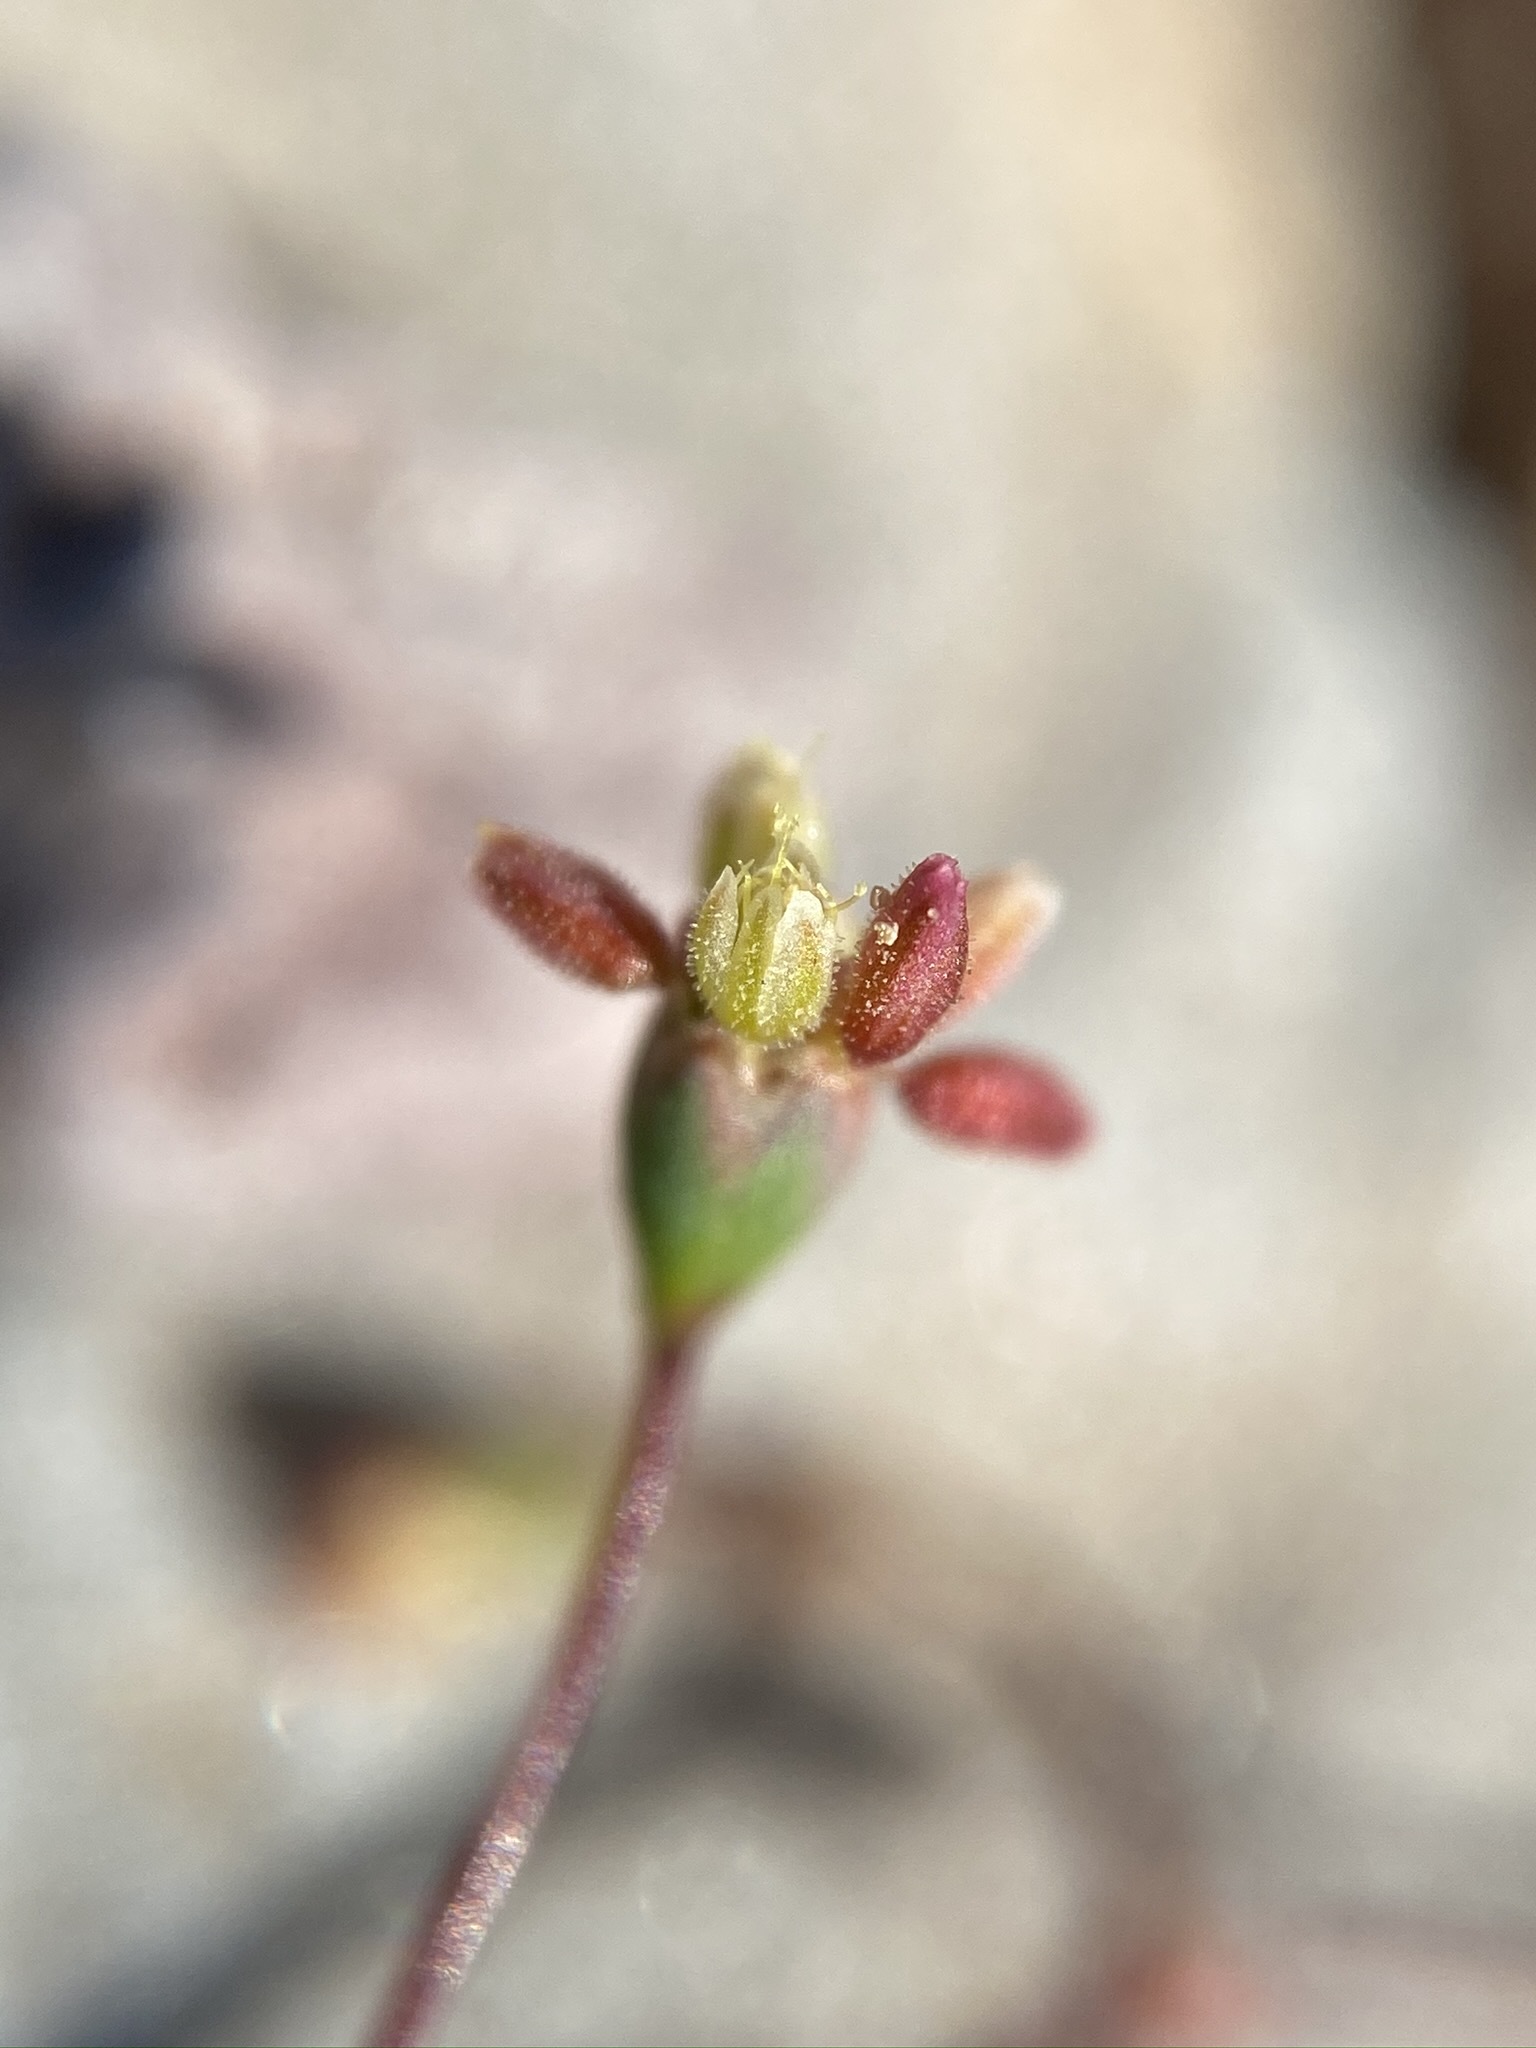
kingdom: Plantae
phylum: Tracheophyta
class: Magnoliopsida
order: Caryophyllales
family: Polygonaceae
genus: Eriogonum
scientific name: Eriogonum reniforme
